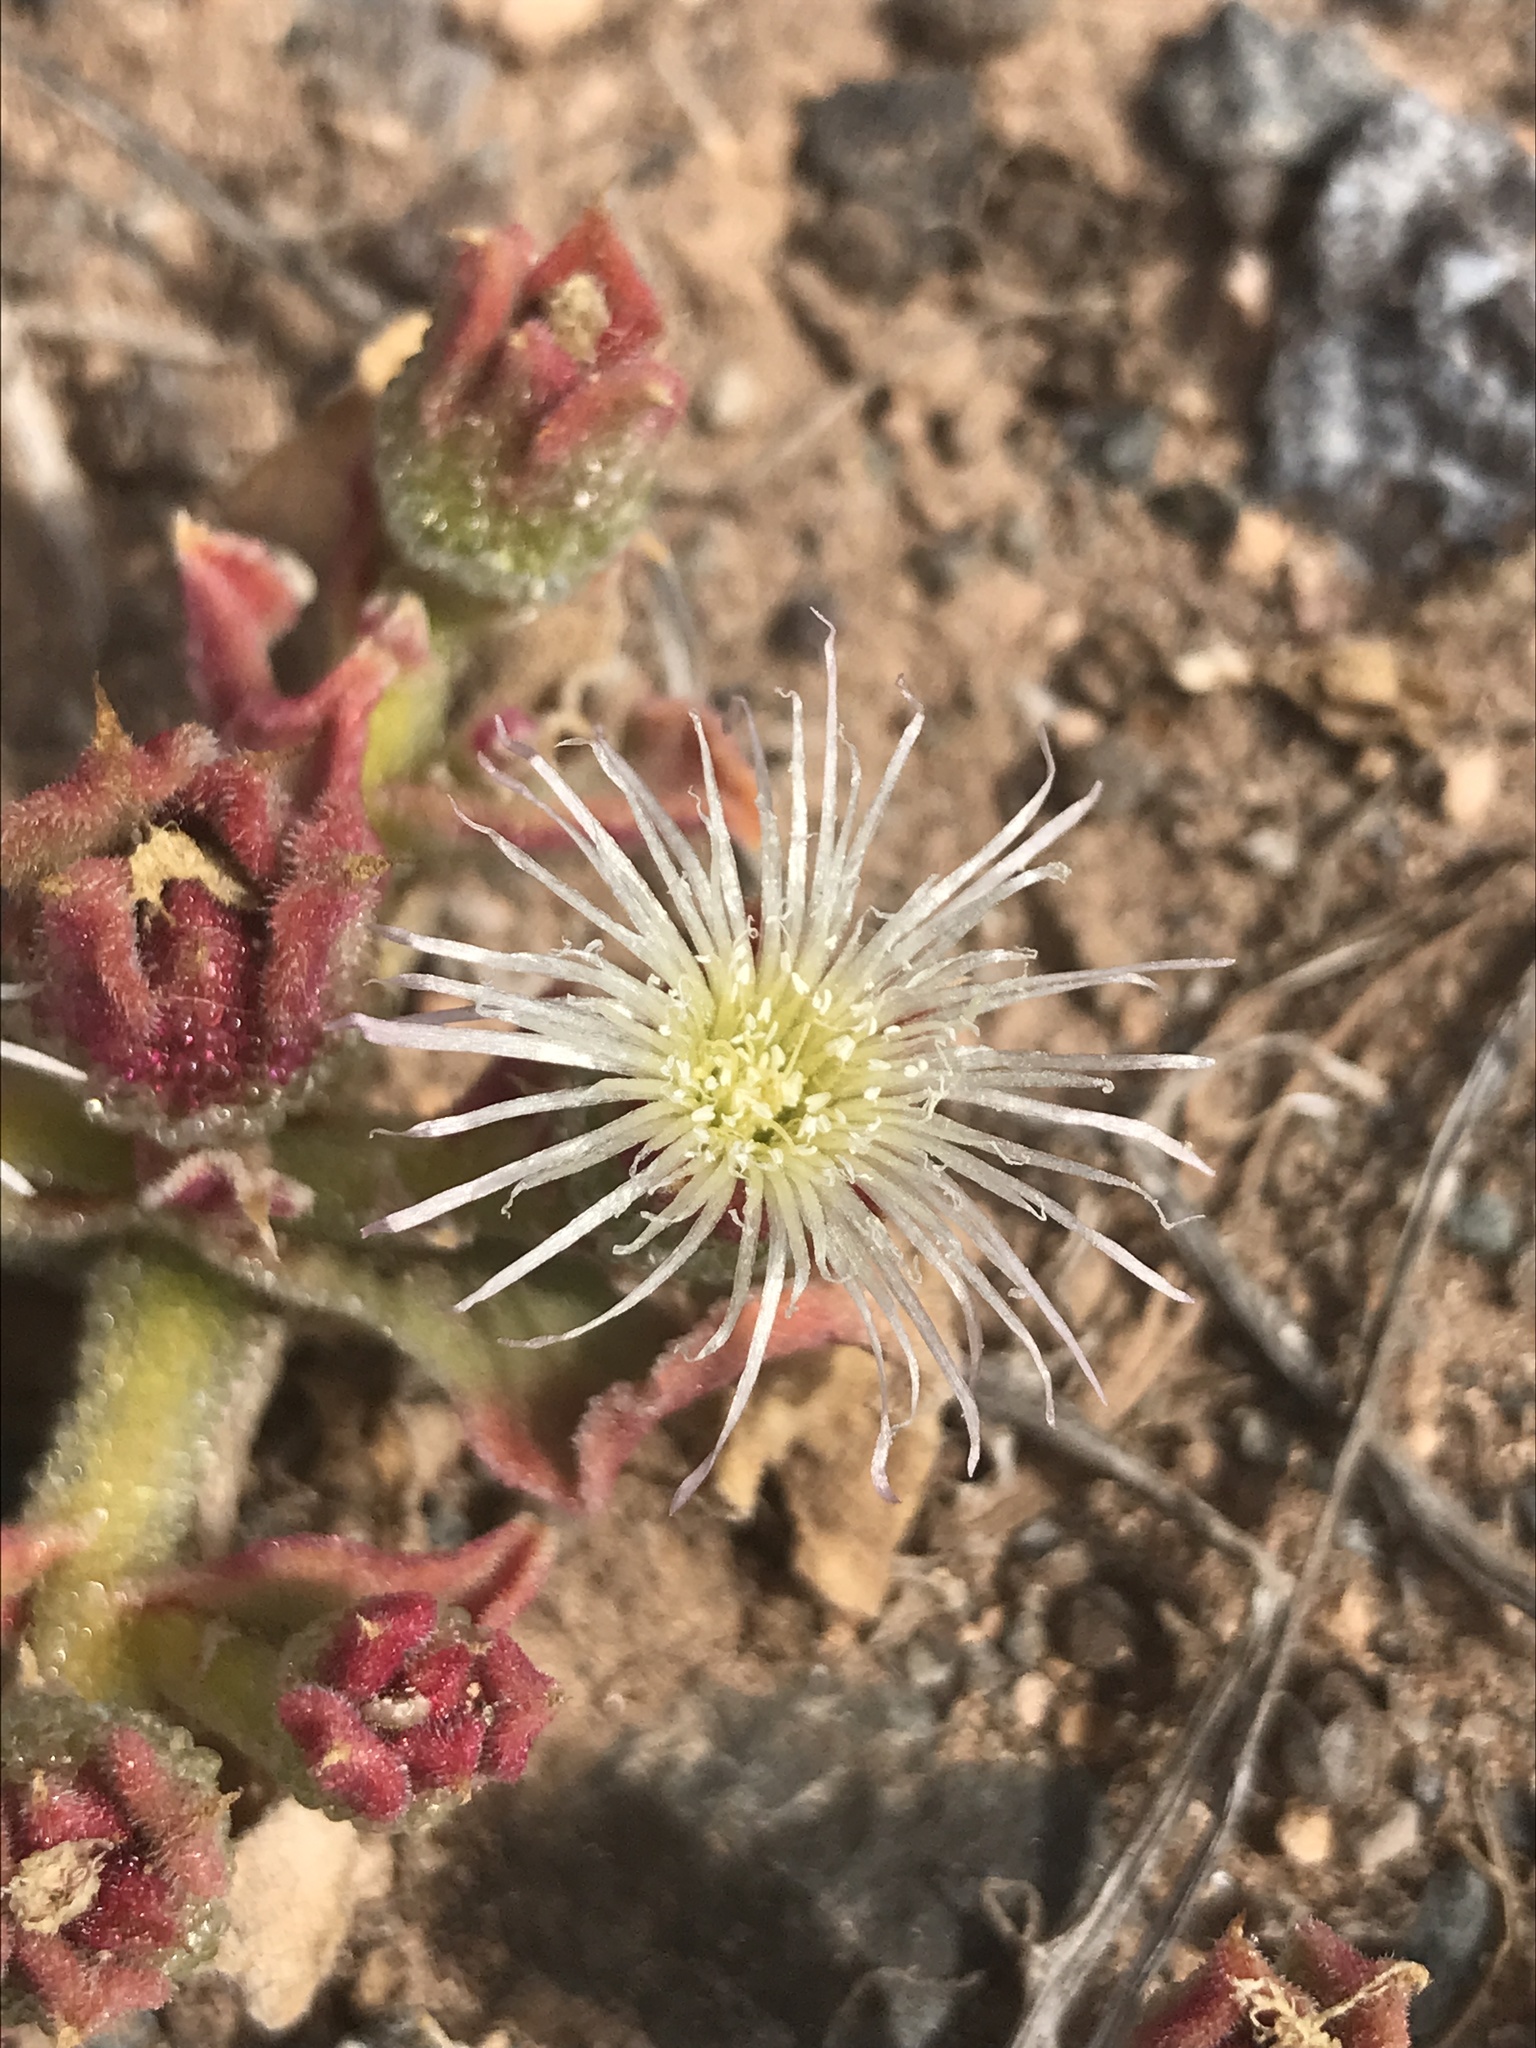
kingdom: Plantae
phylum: Tracheophyta
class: Magnoliopsida
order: Caryophyllales
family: Aizoaceae
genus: Mesembryanthemum
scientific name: Mesembryanthemum crystallinum
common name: Common iceplant
